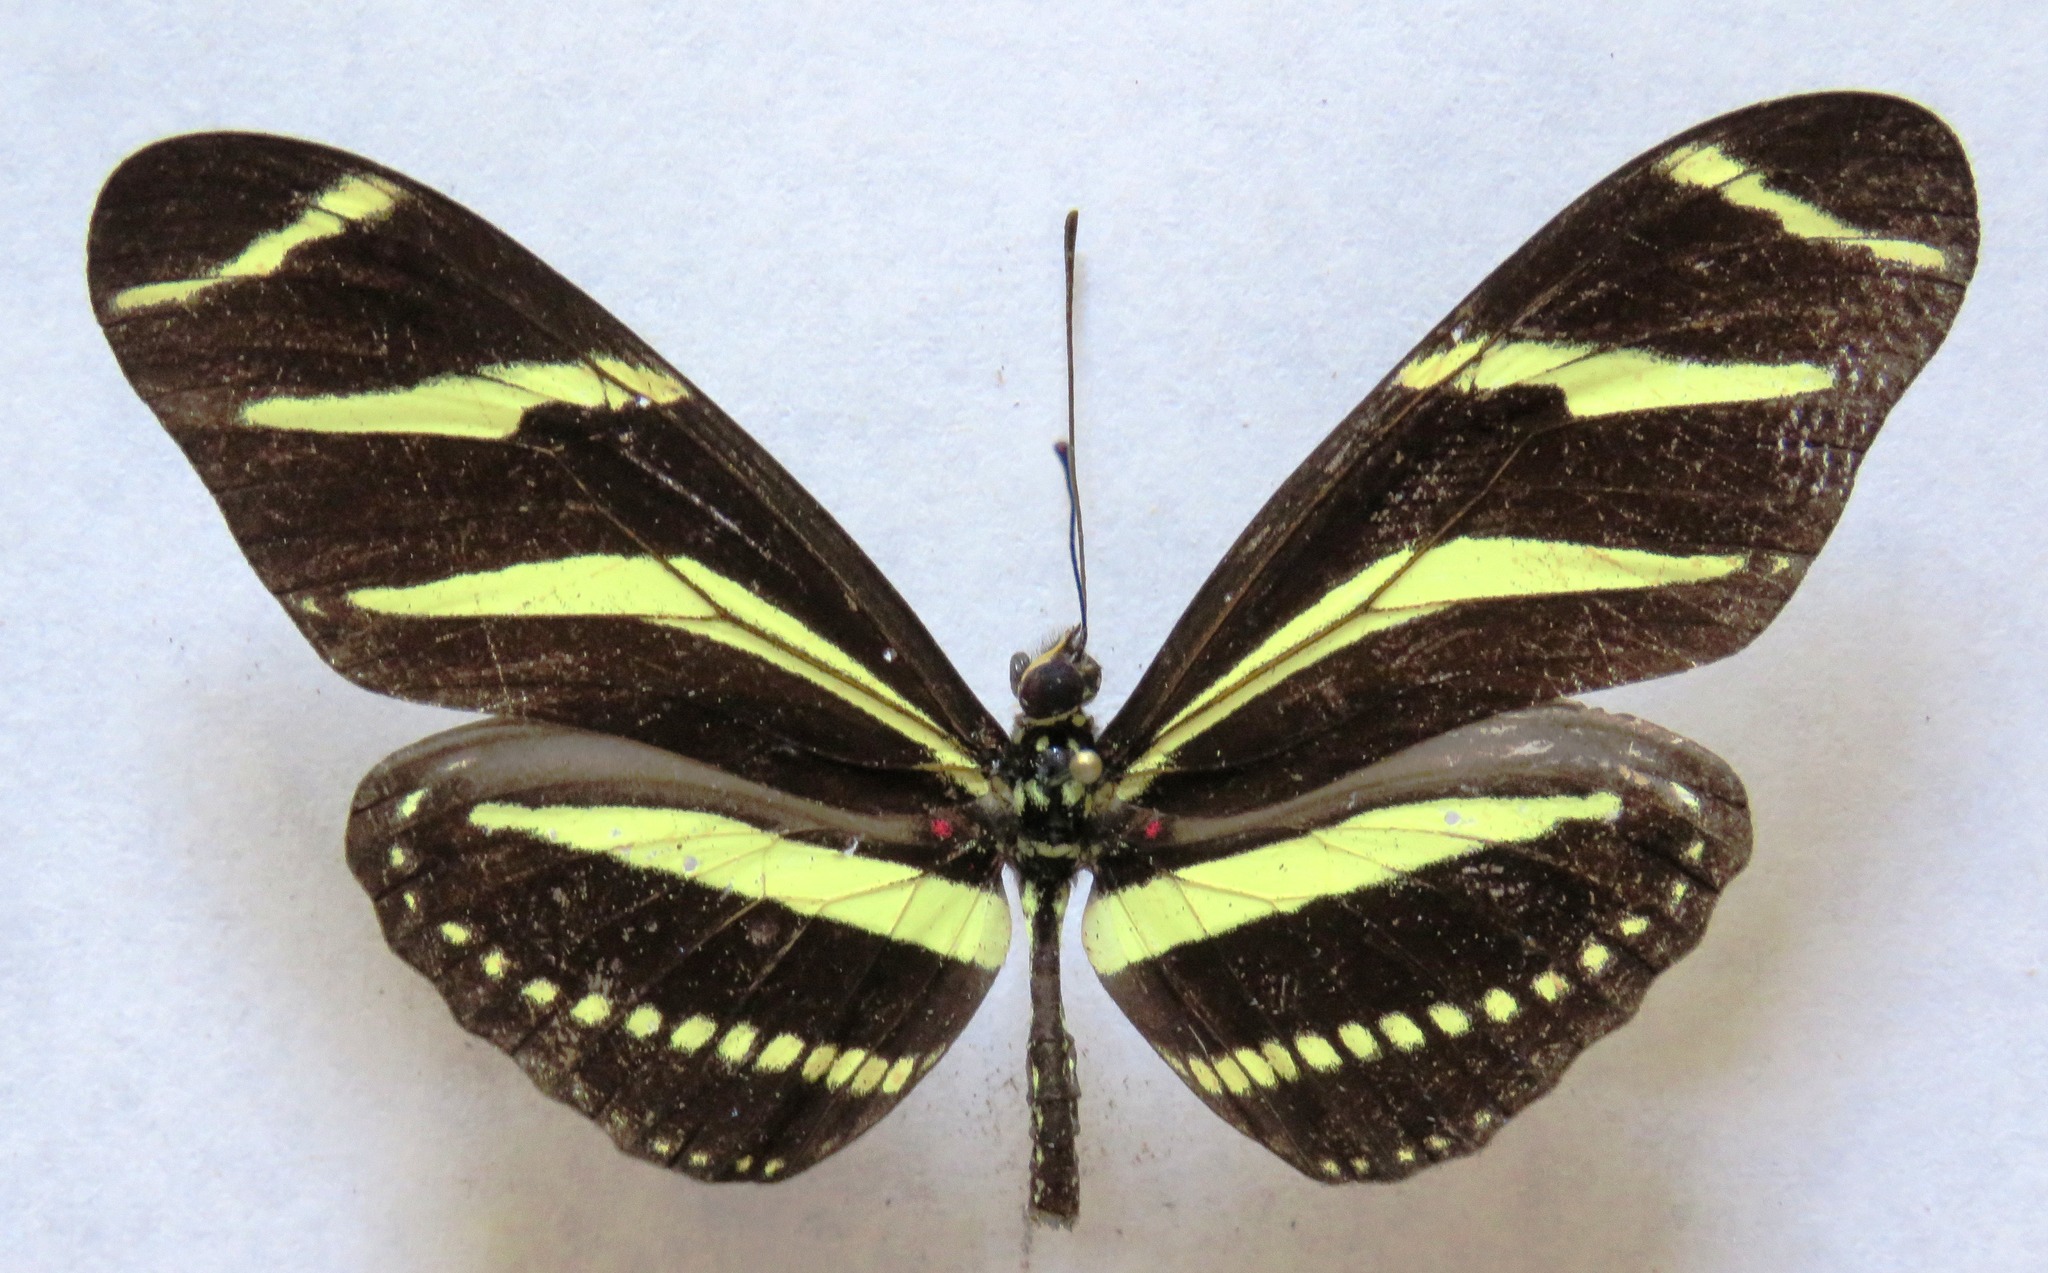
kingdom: Animalia
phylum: Arthropoda
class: Insecta
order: Lepidoptera
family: Nymphalidae
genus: Heliconius
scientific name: Heliconius charithonia
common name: Zebra long wing
